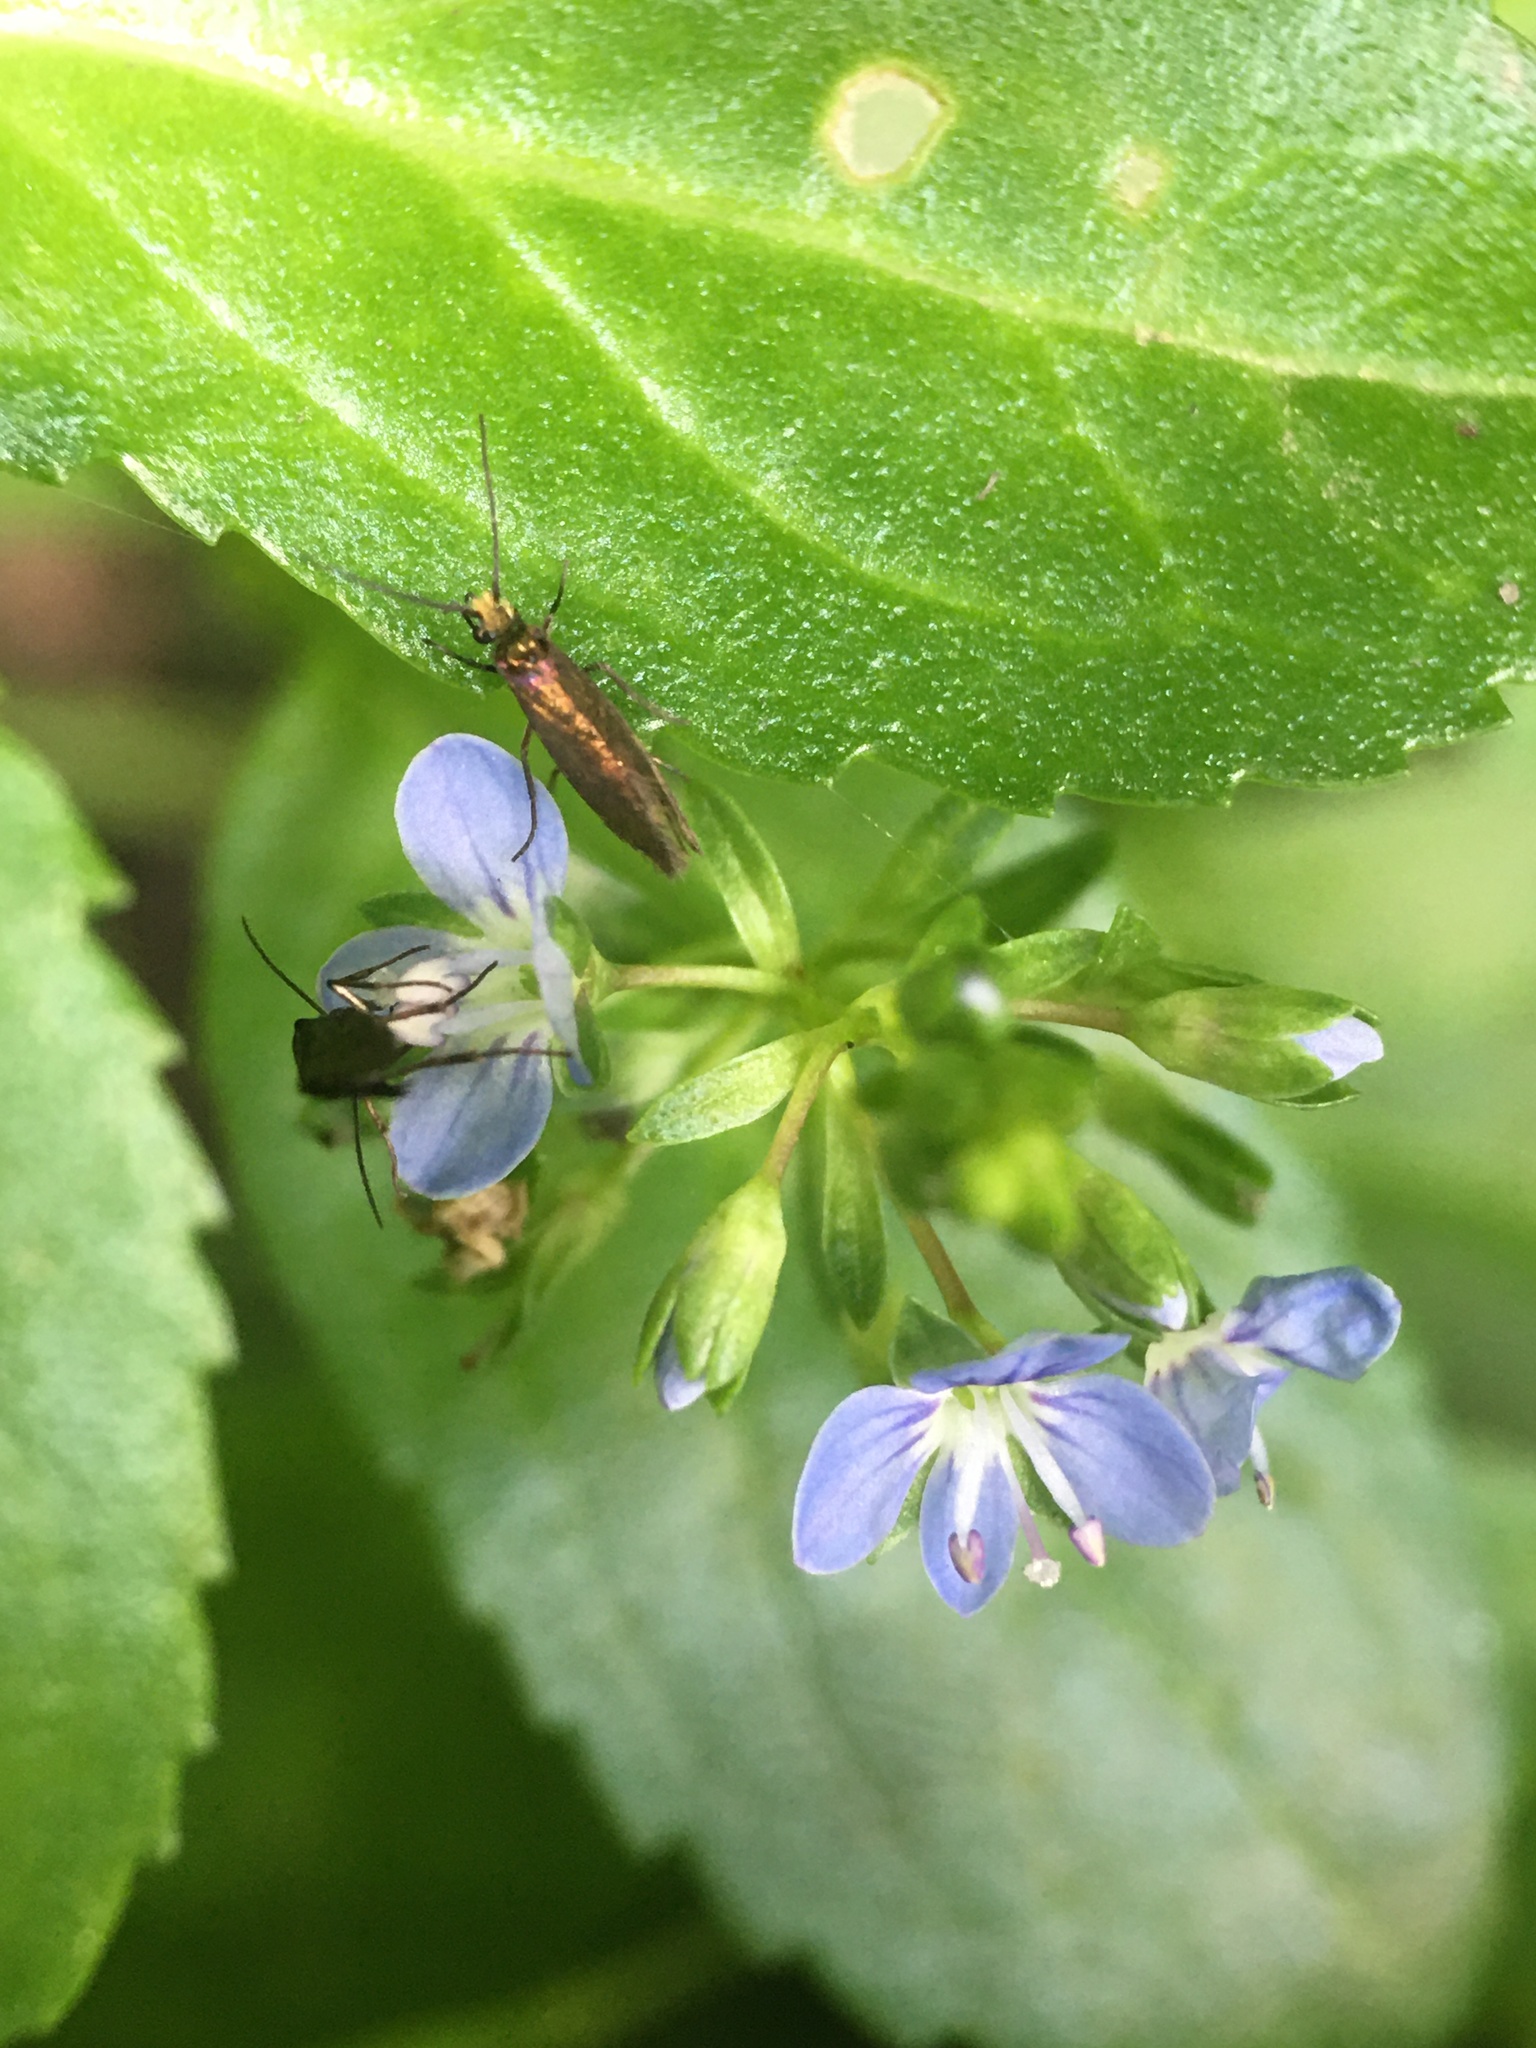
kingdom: Plantae
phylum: Tracheophyta
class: Magnoliopsida
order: Lamiales
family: Plantaginaceae
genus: Veronica
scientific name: Veronica beccabunga
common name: Brooklime
